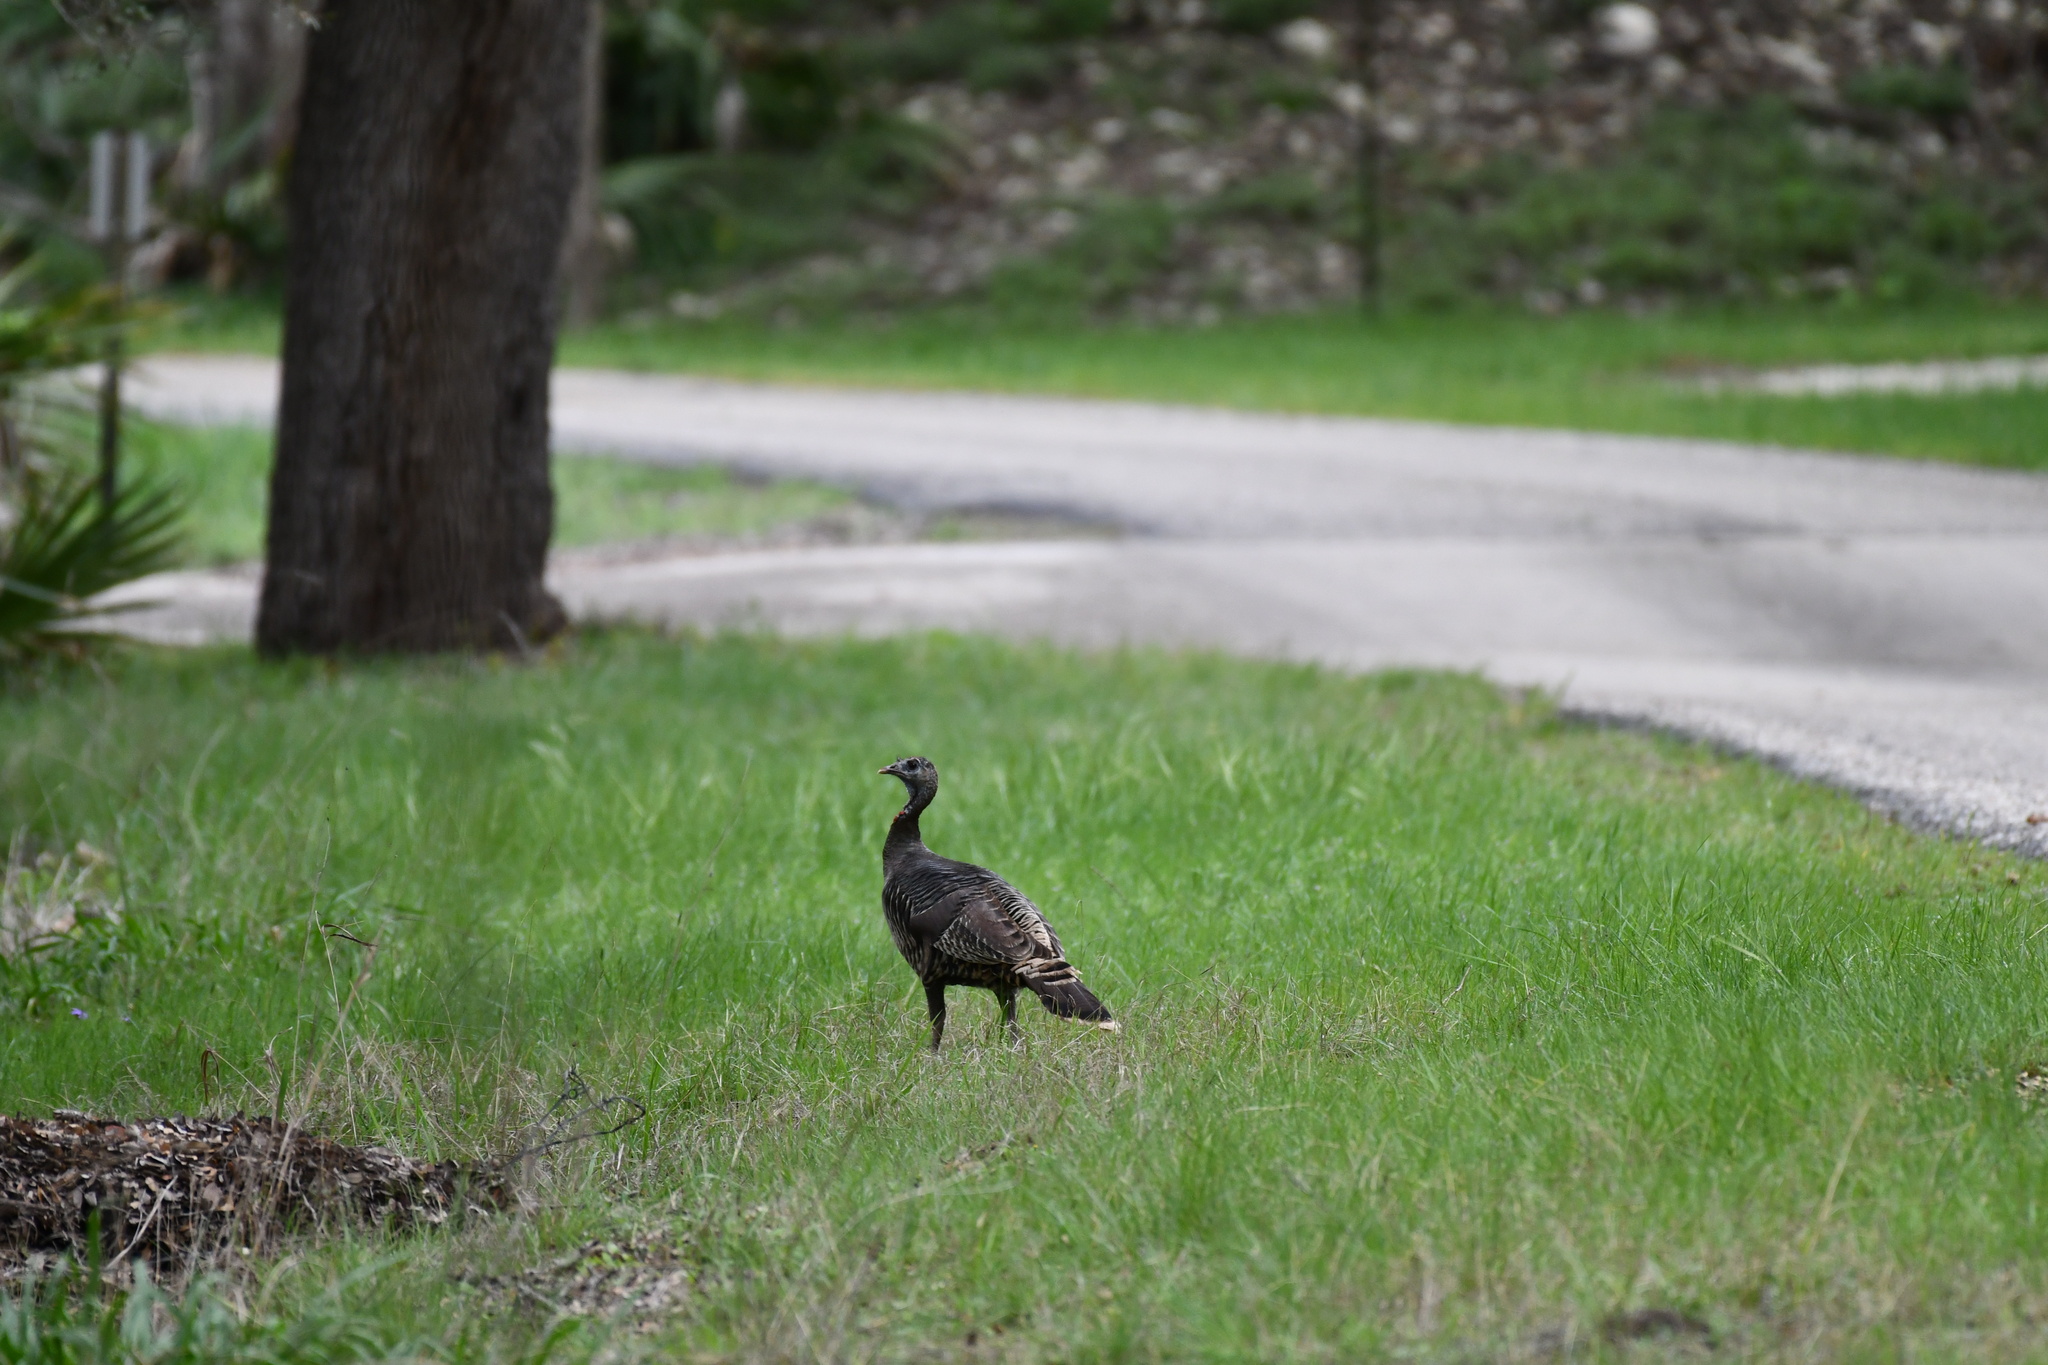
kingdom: Animalia
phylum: Chordata
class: Aves
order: Galliformes
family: Phasianidae
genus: Meleagris
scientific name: Meleagris gallopavo
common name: Wild turkey
